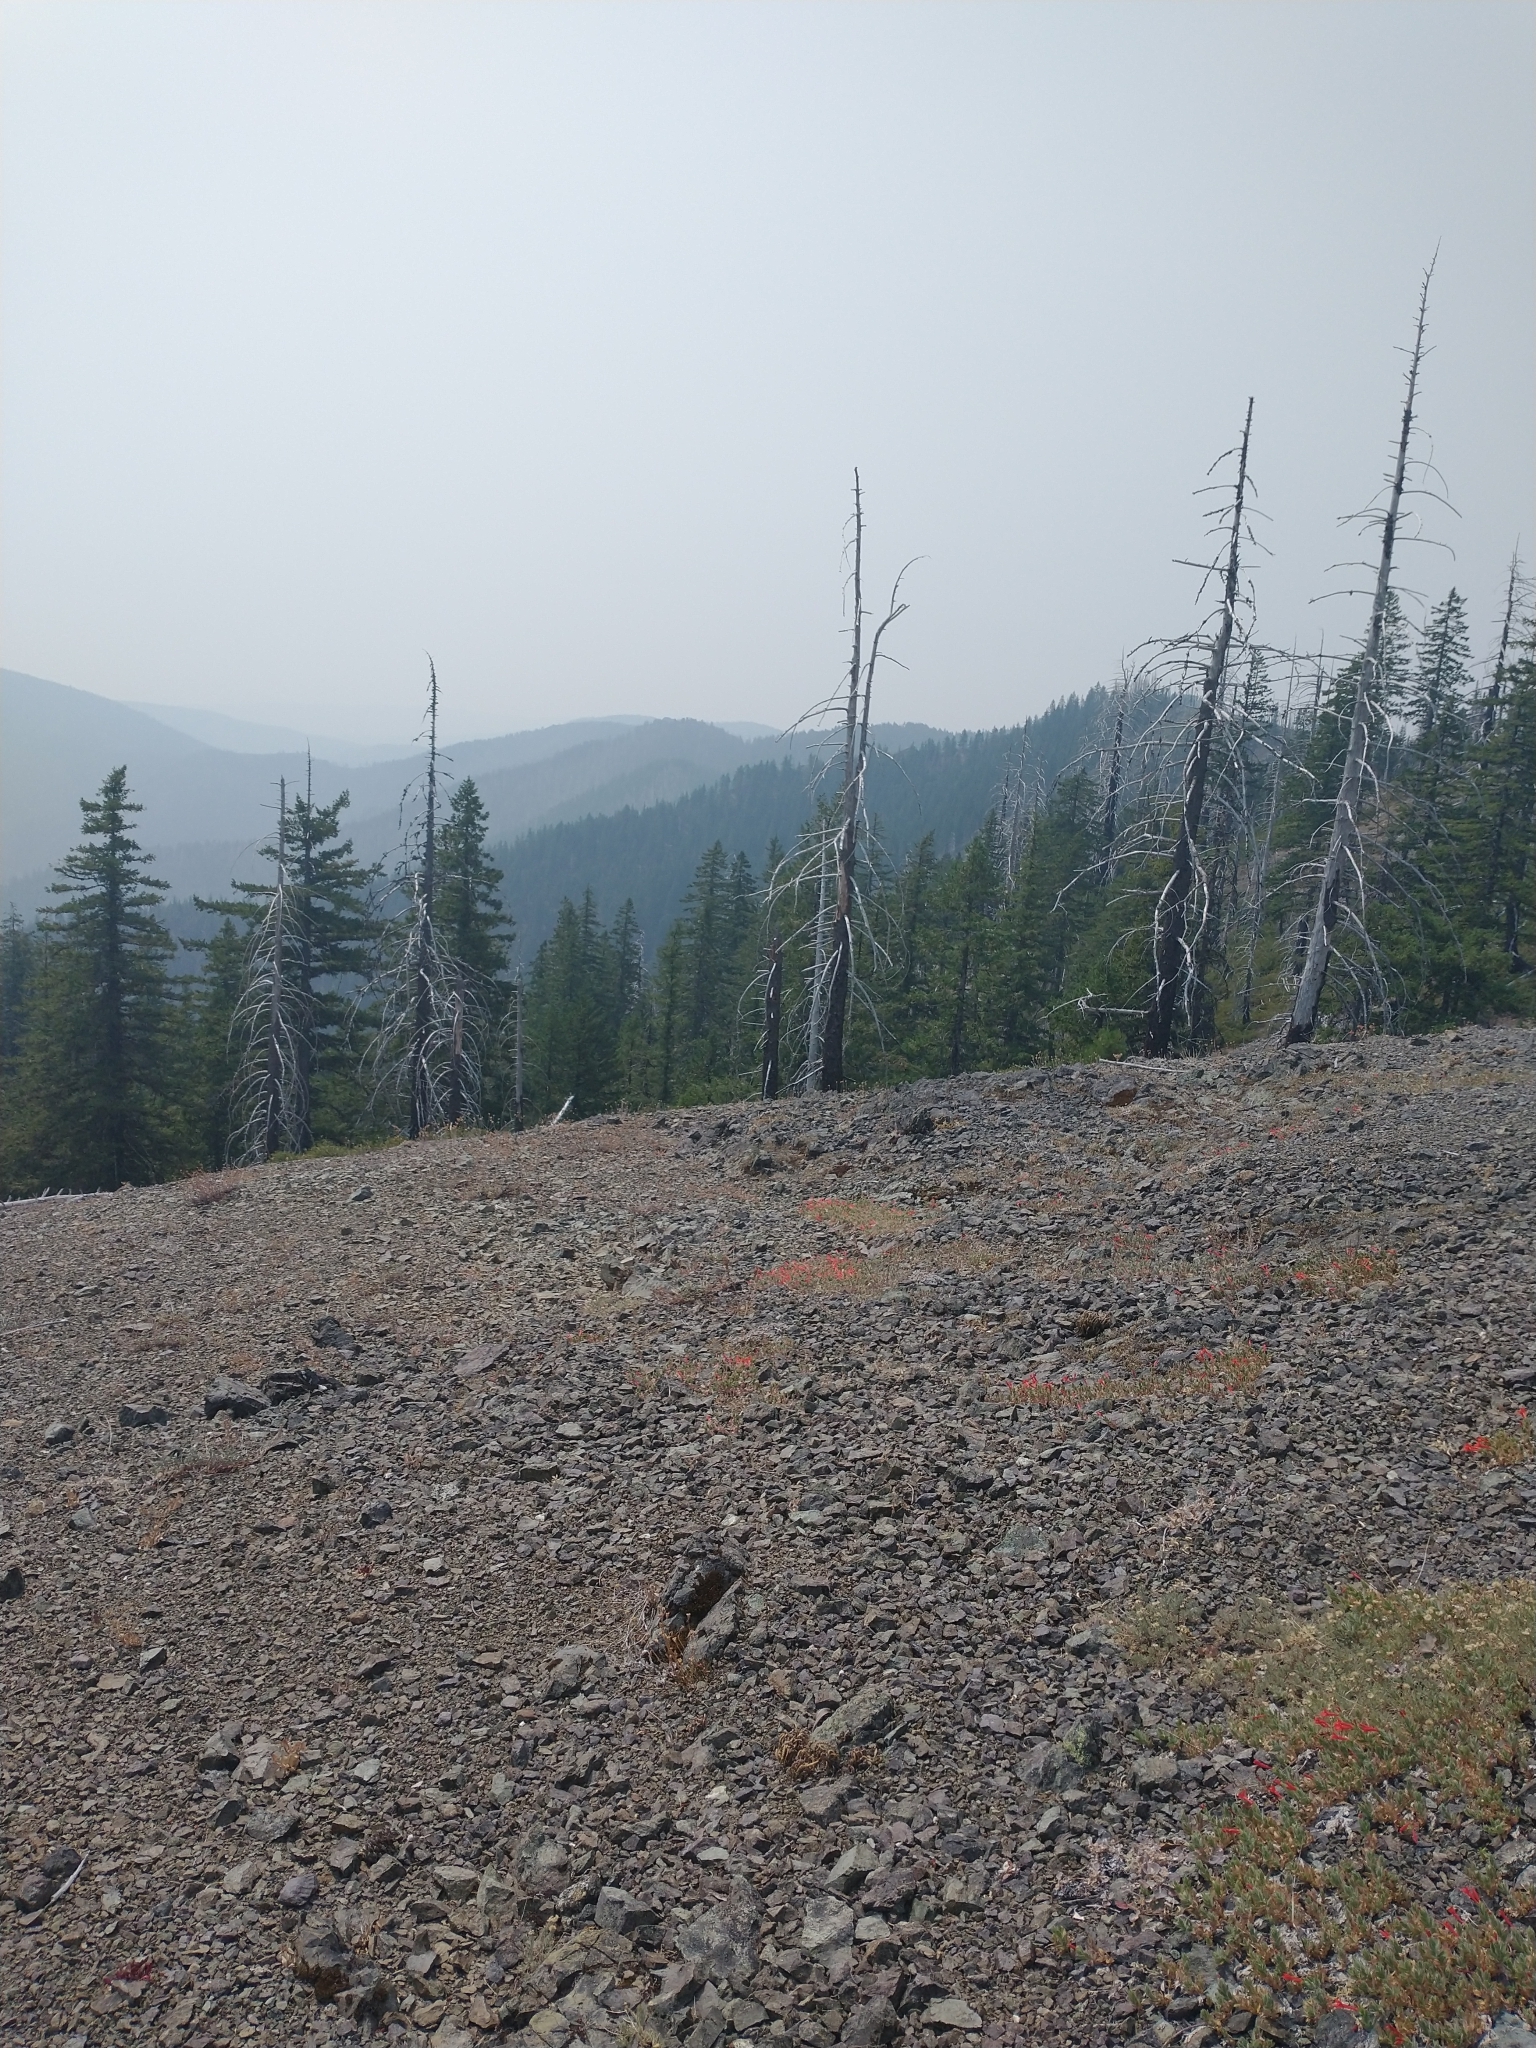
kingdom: Plantae
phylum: Tracheophyta
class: Magnoliopsida
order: Myrtales
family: Onagraceae
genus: Epilobium
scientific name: Epilobium canum
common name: California-fuchsia
